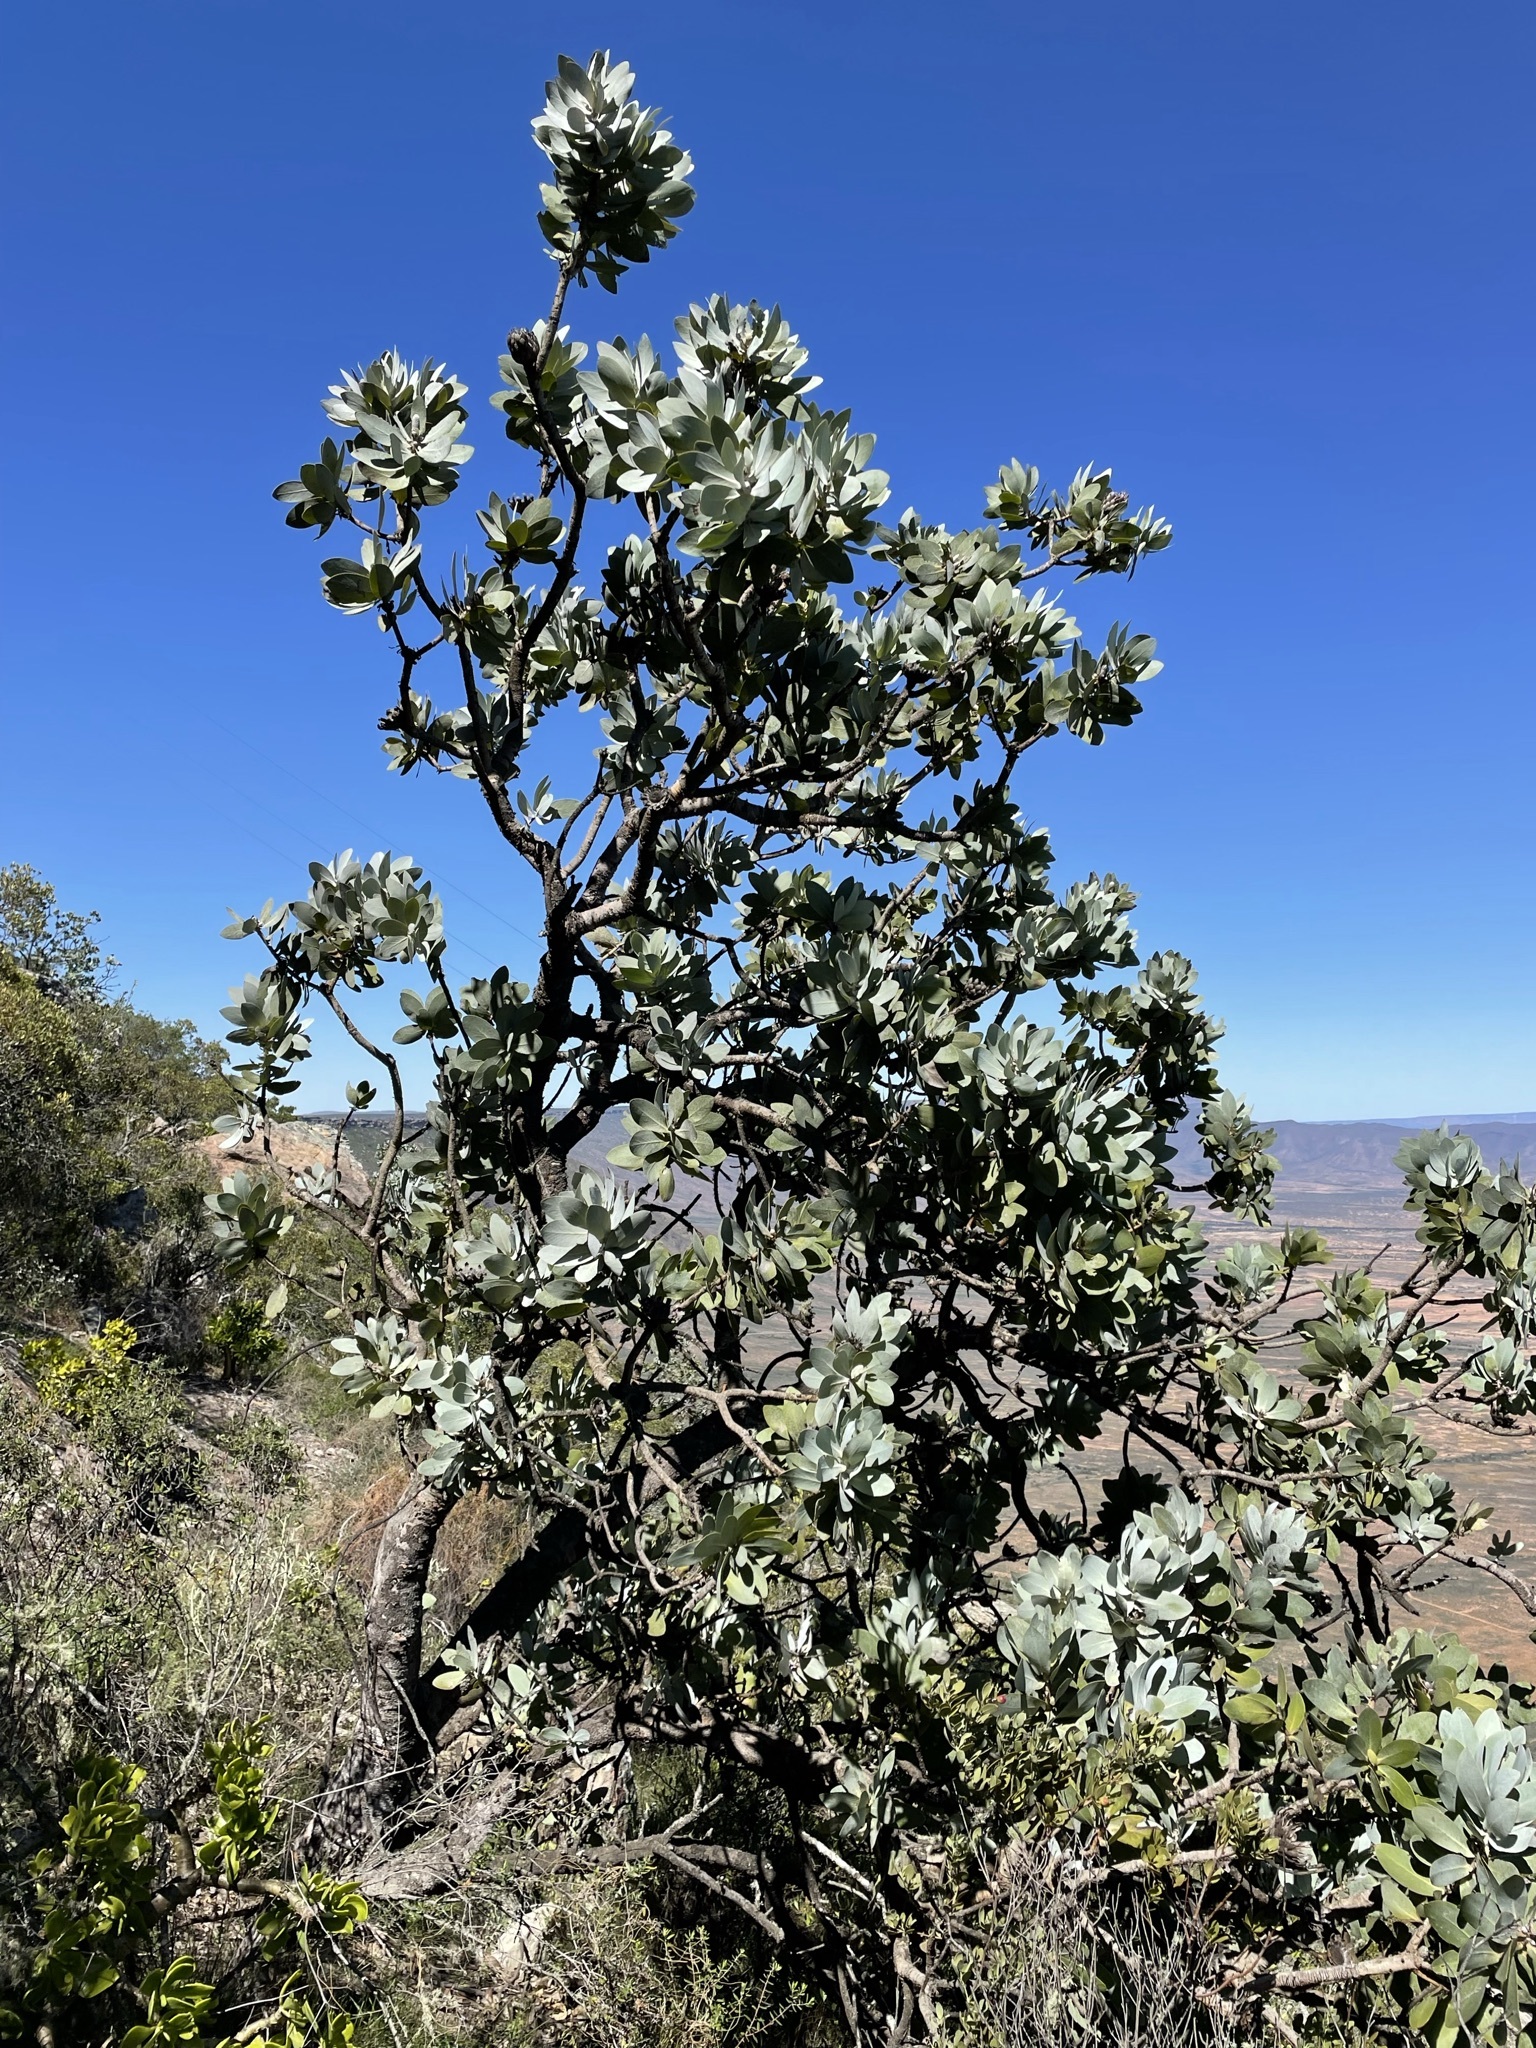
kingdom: Plantae
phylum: Tracheophyta
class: Magnoliopsida
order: Proteales
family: Proteaceae
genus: Protea
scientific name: Protea nitida
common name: Tree protea
